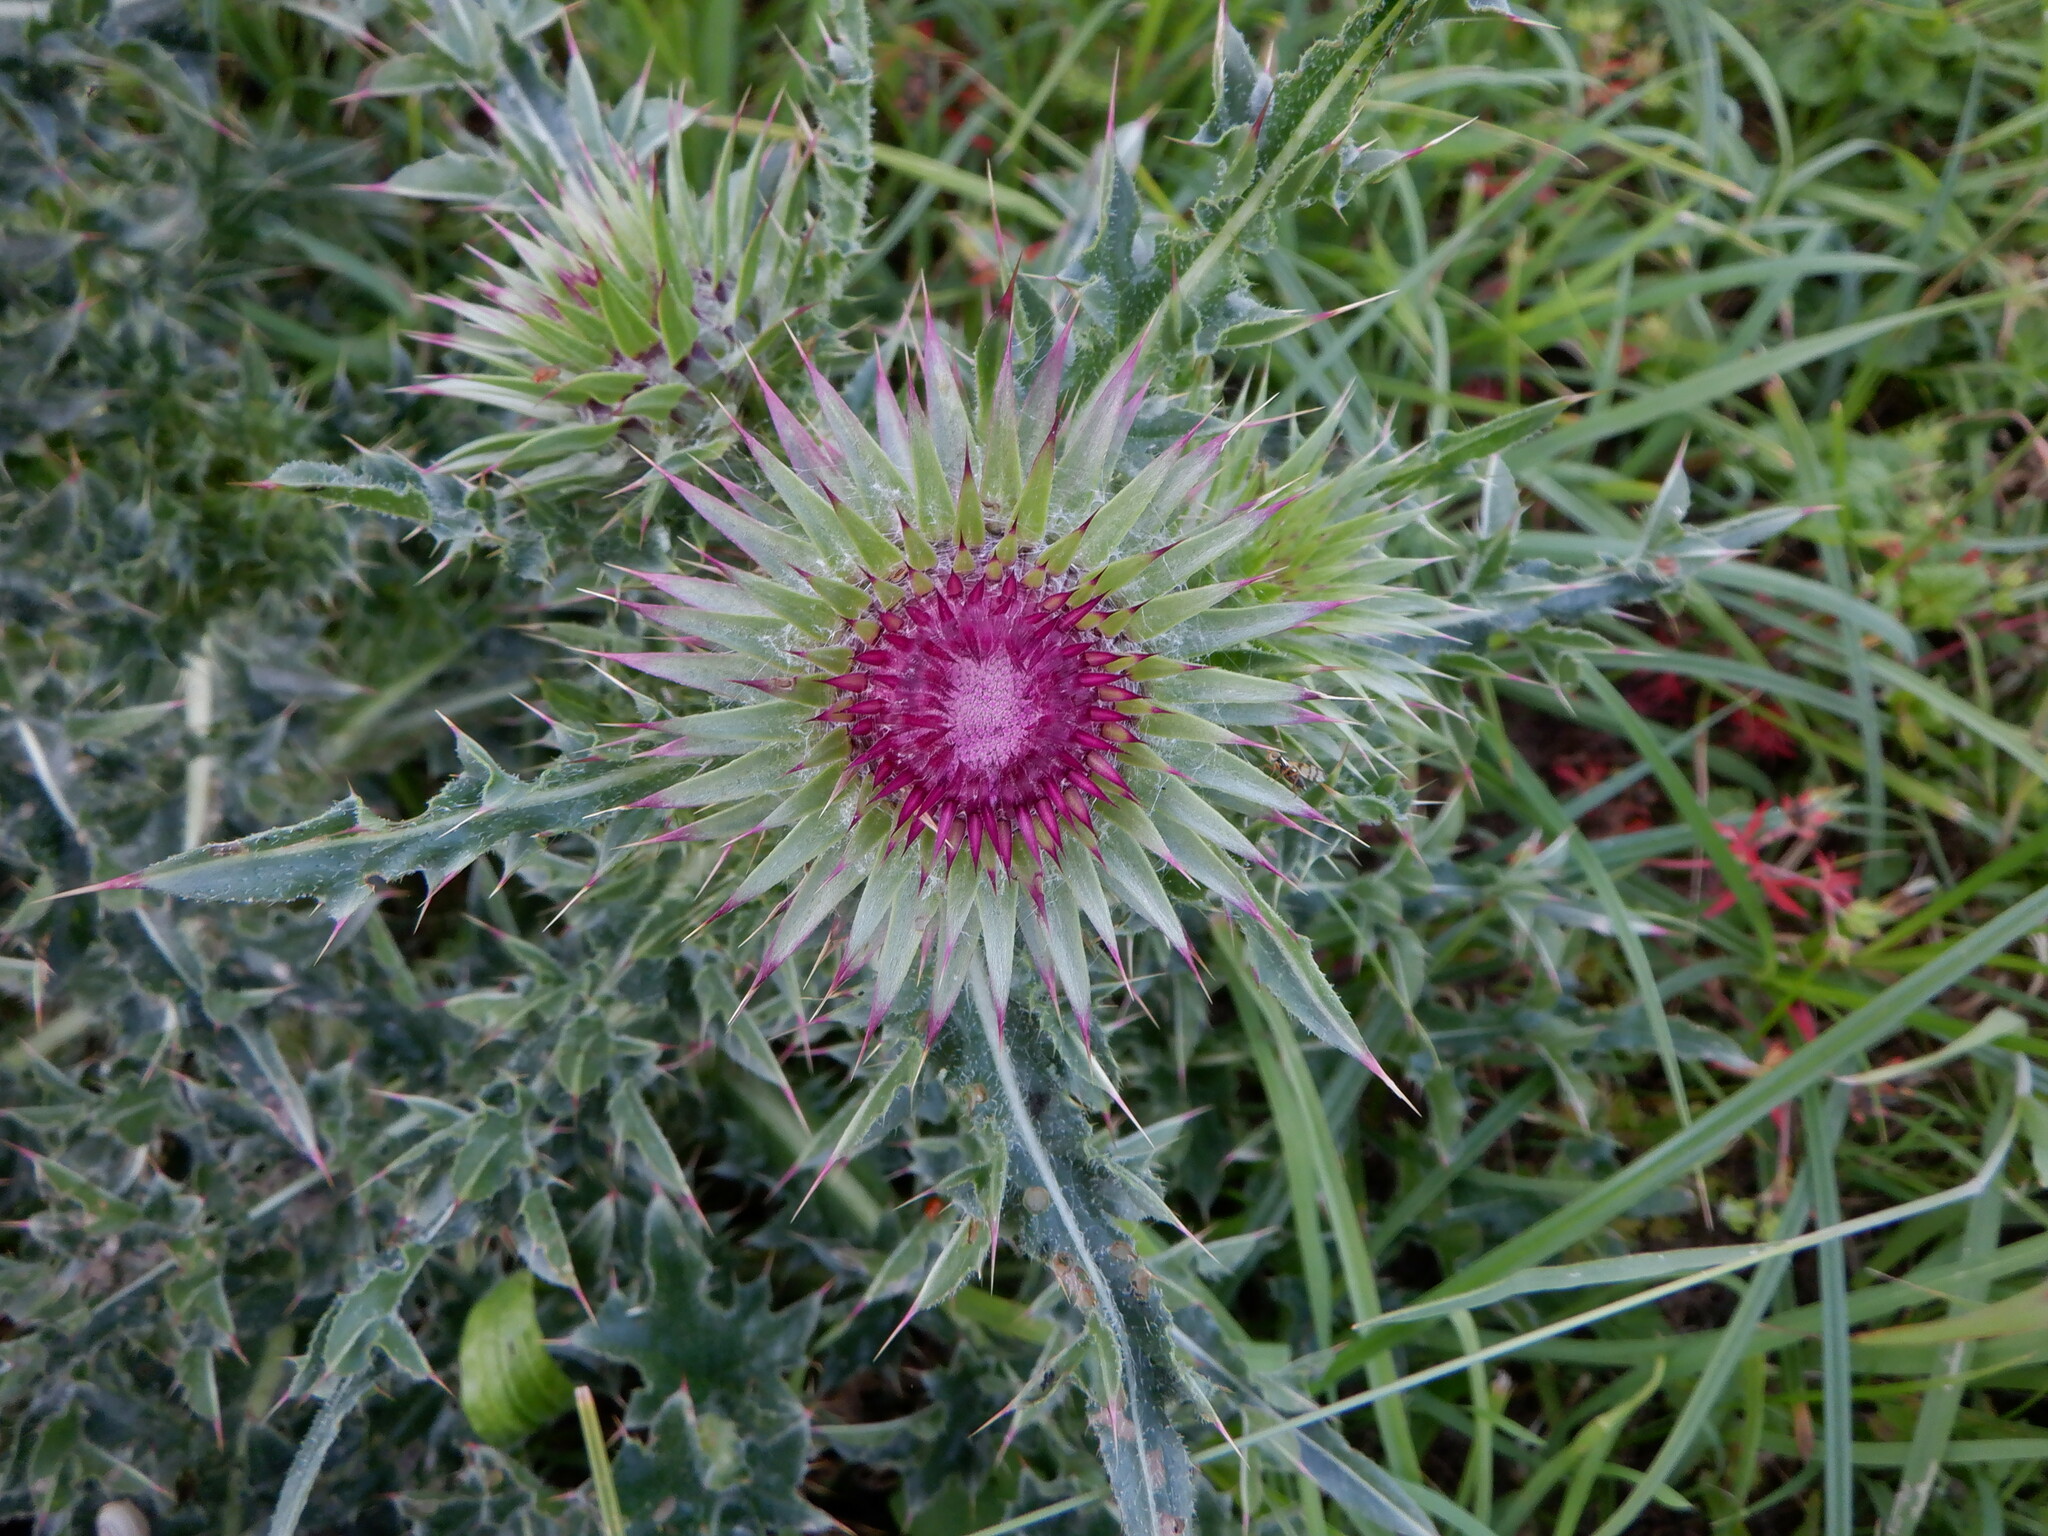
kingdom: Plantae
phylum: Tracheophyta
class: Magnoliopsida
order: Asterales
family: Asteraceae
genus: Carduus
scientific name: Carduus nutans
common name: Musk thistle
